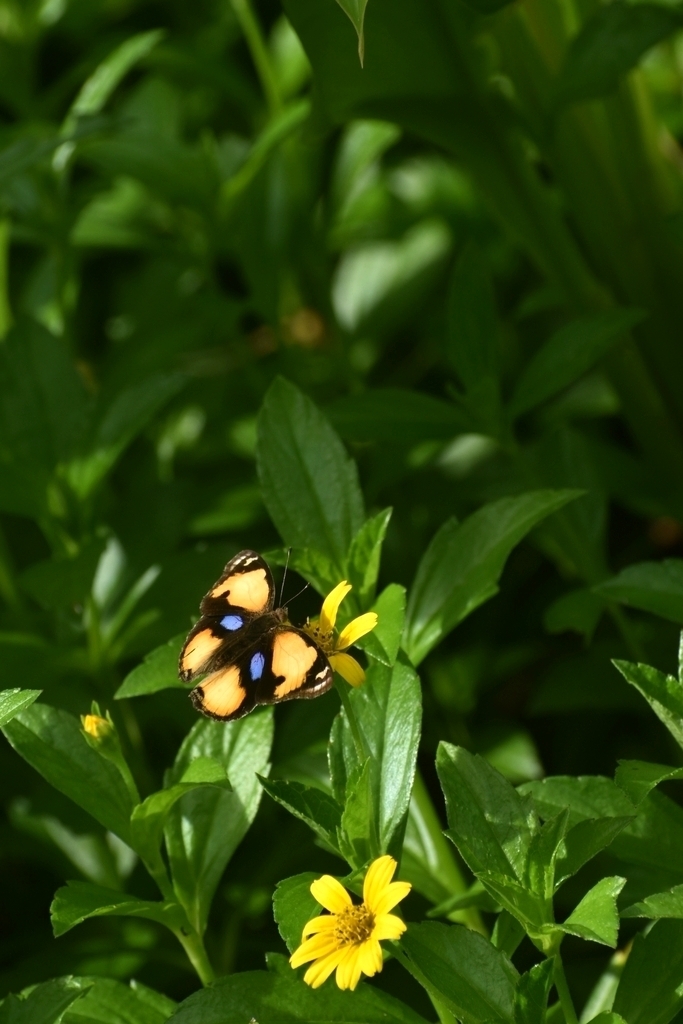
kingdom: Animalia
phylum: Arthropoda
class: Insecta
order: Lepidoptera
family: Nymphalidae
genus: Junonia
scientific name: Junonia hierta
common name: Yellow pansy
